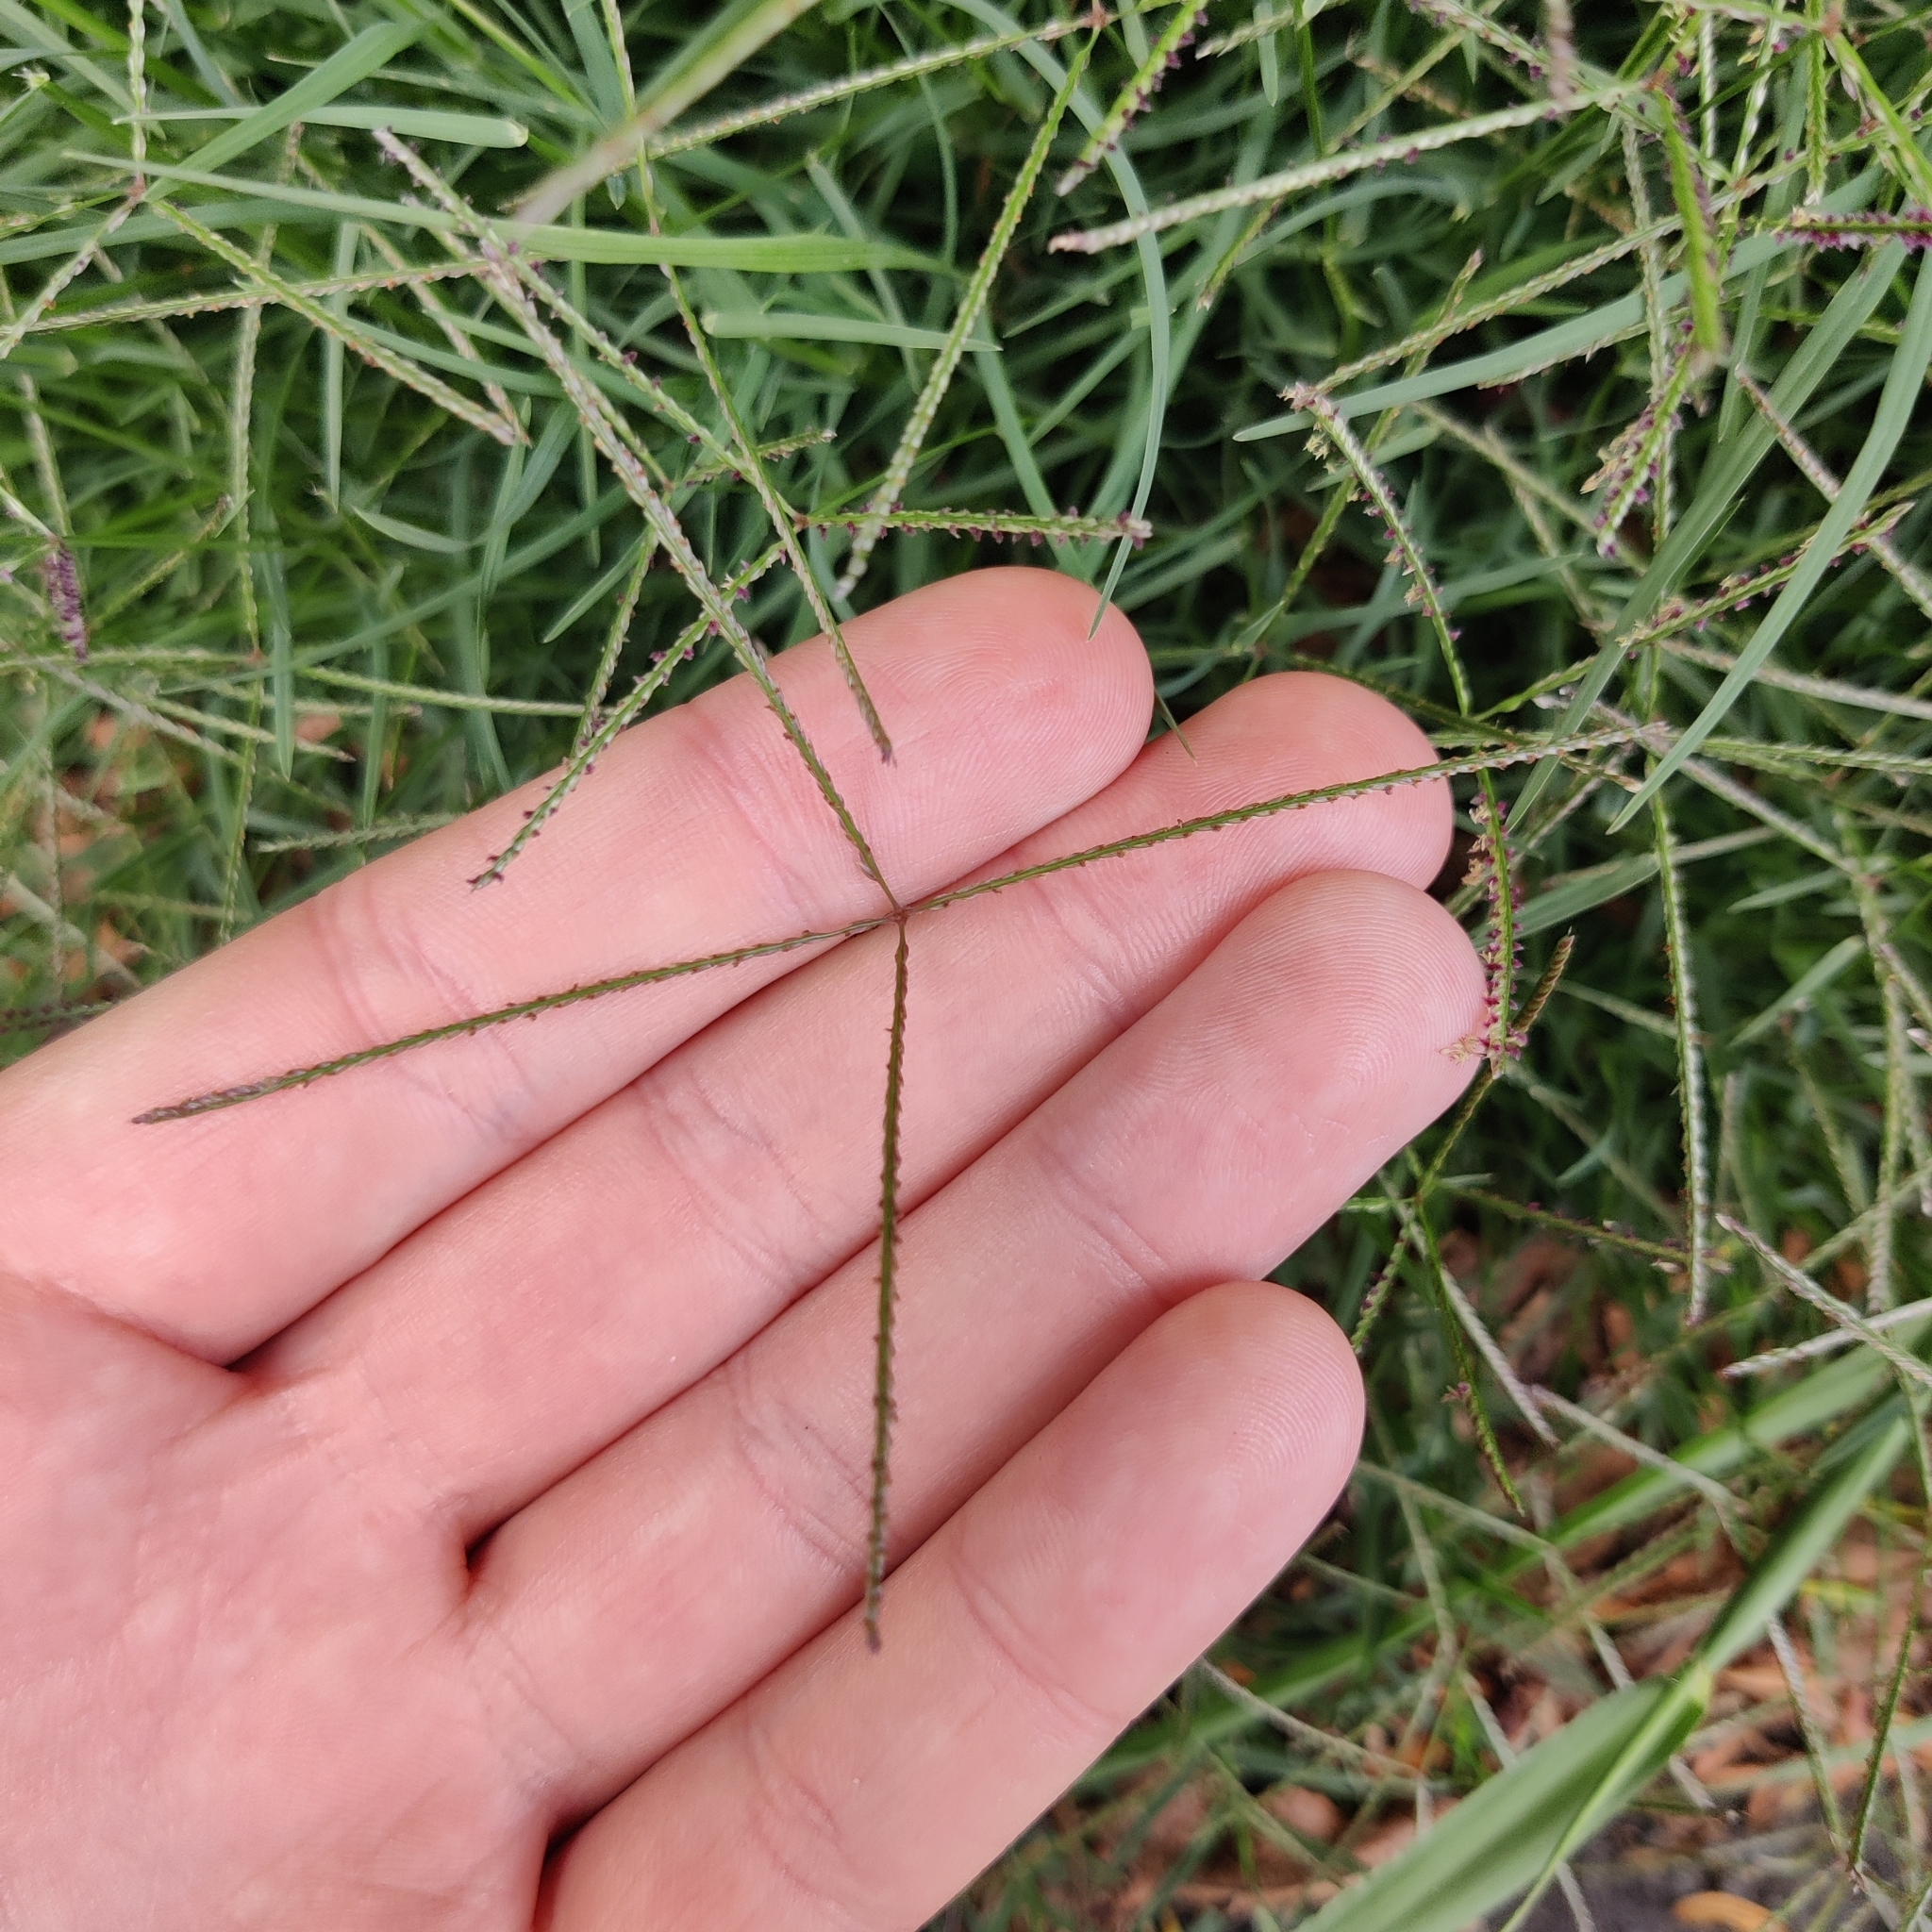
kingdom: Plantae
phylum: Tracheophyta
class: Liliopsida
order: Poales
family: Poaceae
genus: Cynodon
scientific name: Cynodon dactylon
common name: Bermuda grass
